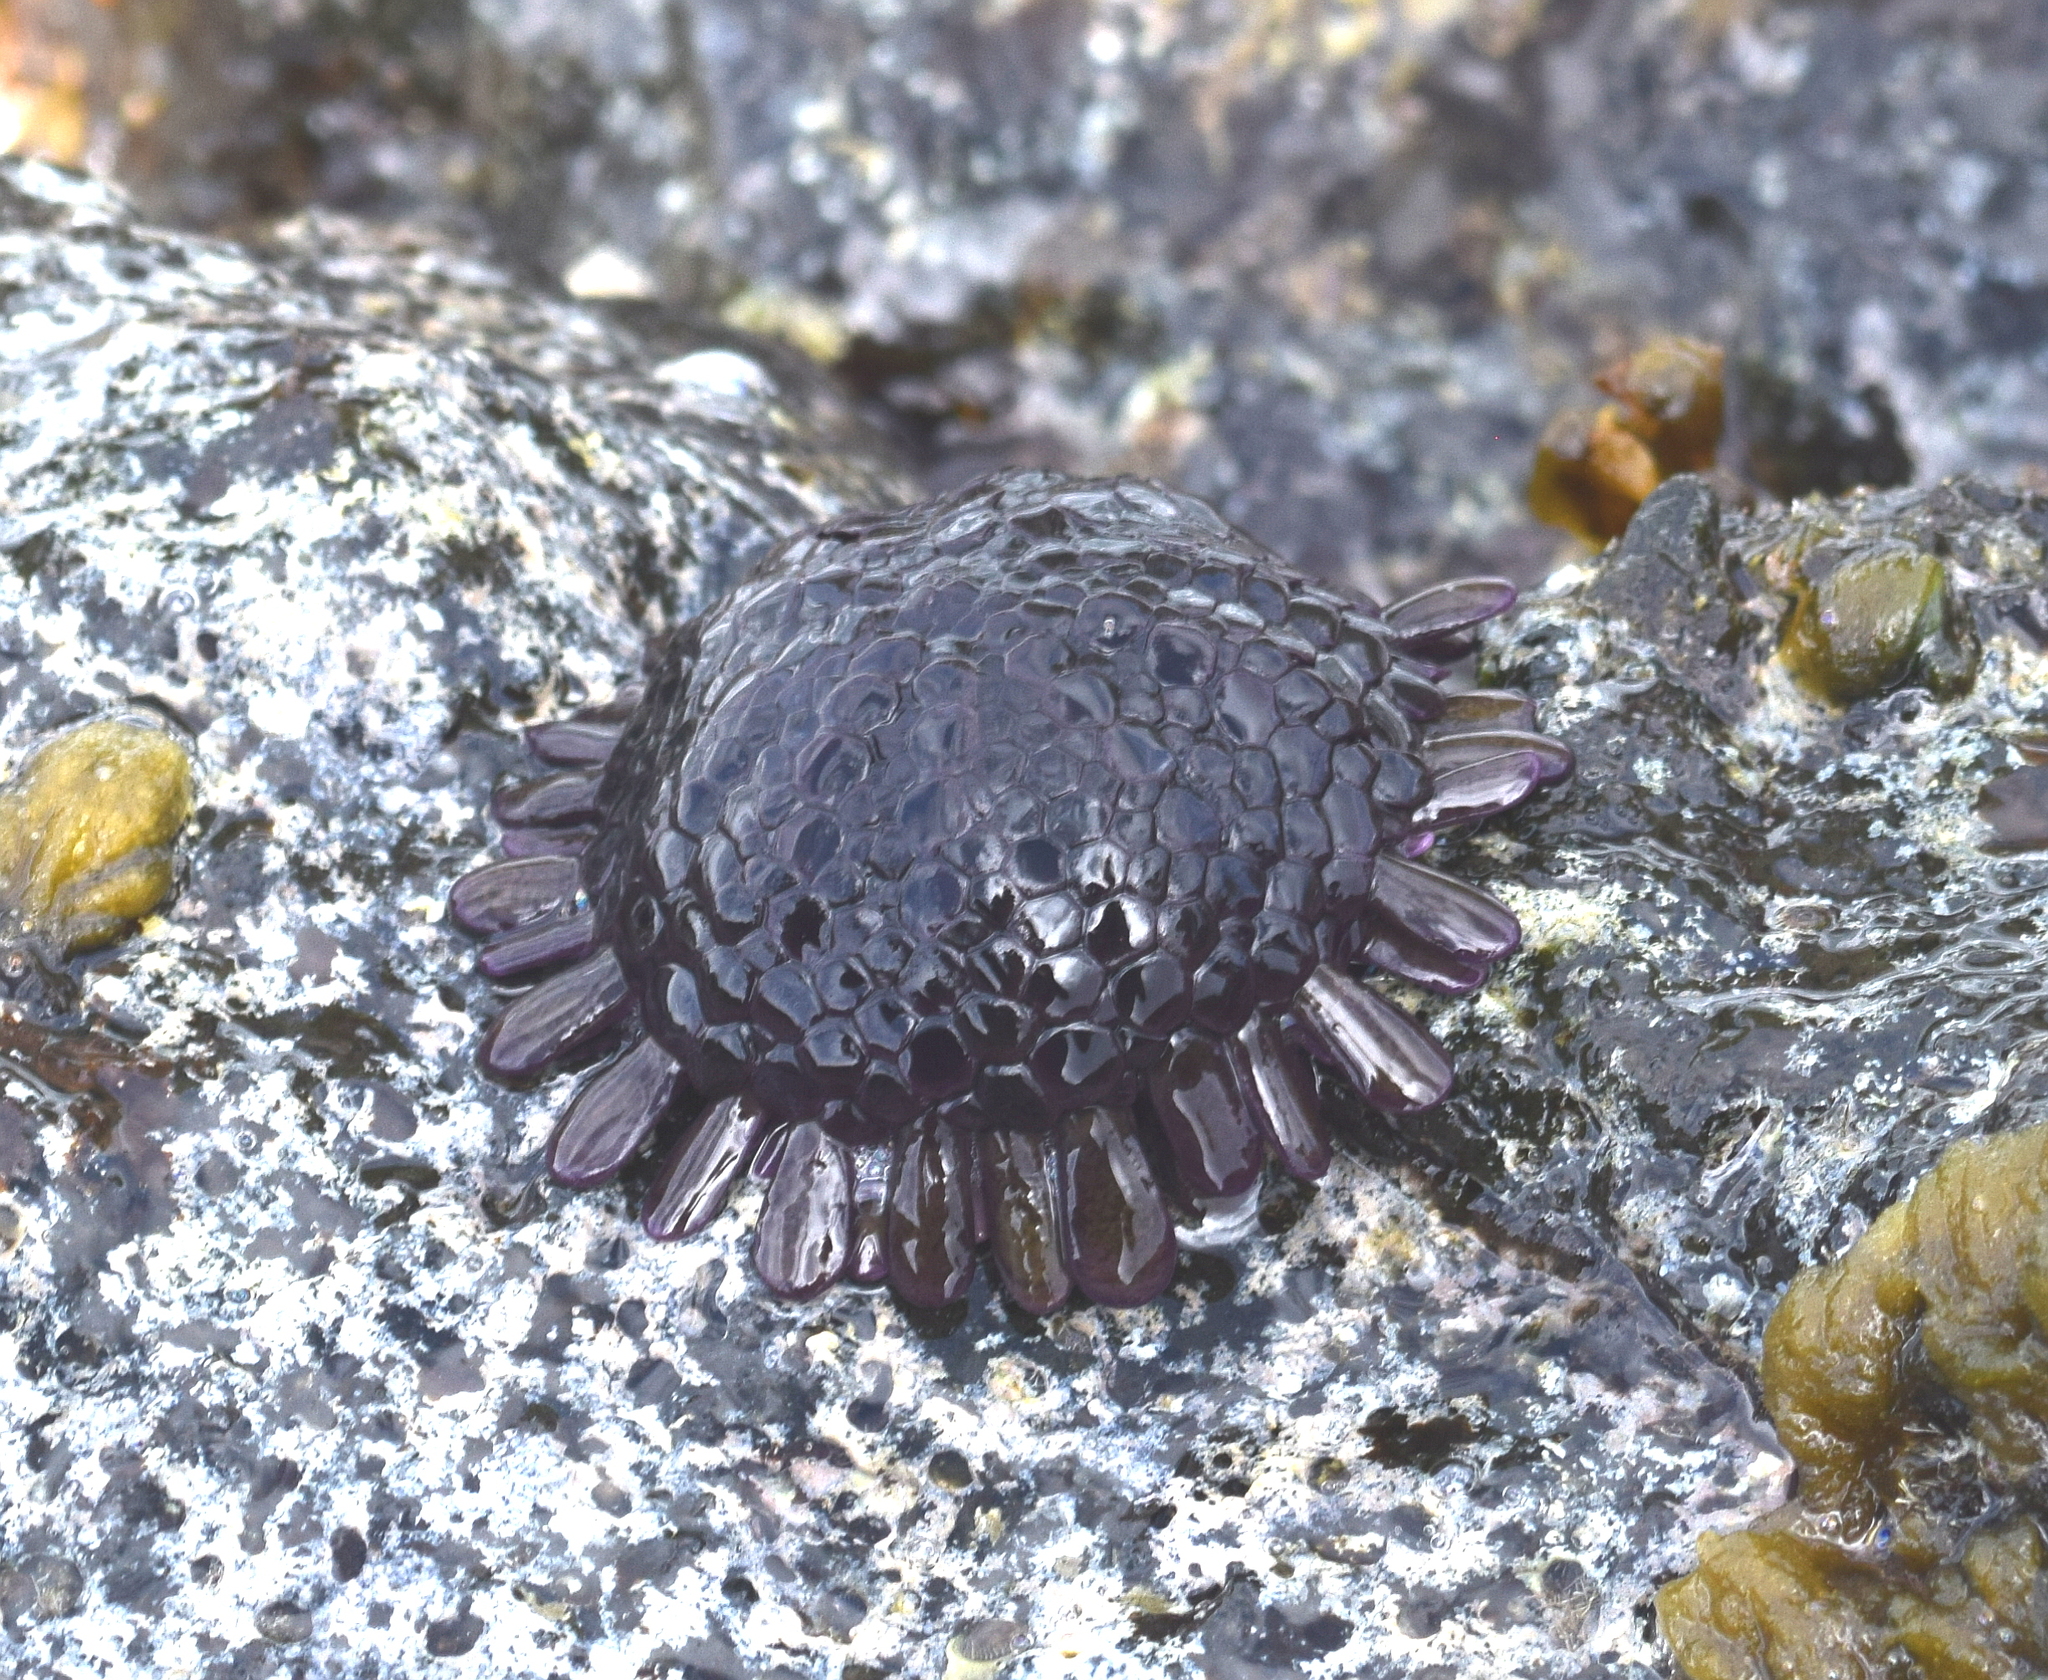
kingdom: Animalia
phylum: Echinodermata
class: Echinoidea
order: Camarodonta
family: Echinometridae
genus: Colobocentrotus
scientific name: Colobocentrotus atratus
